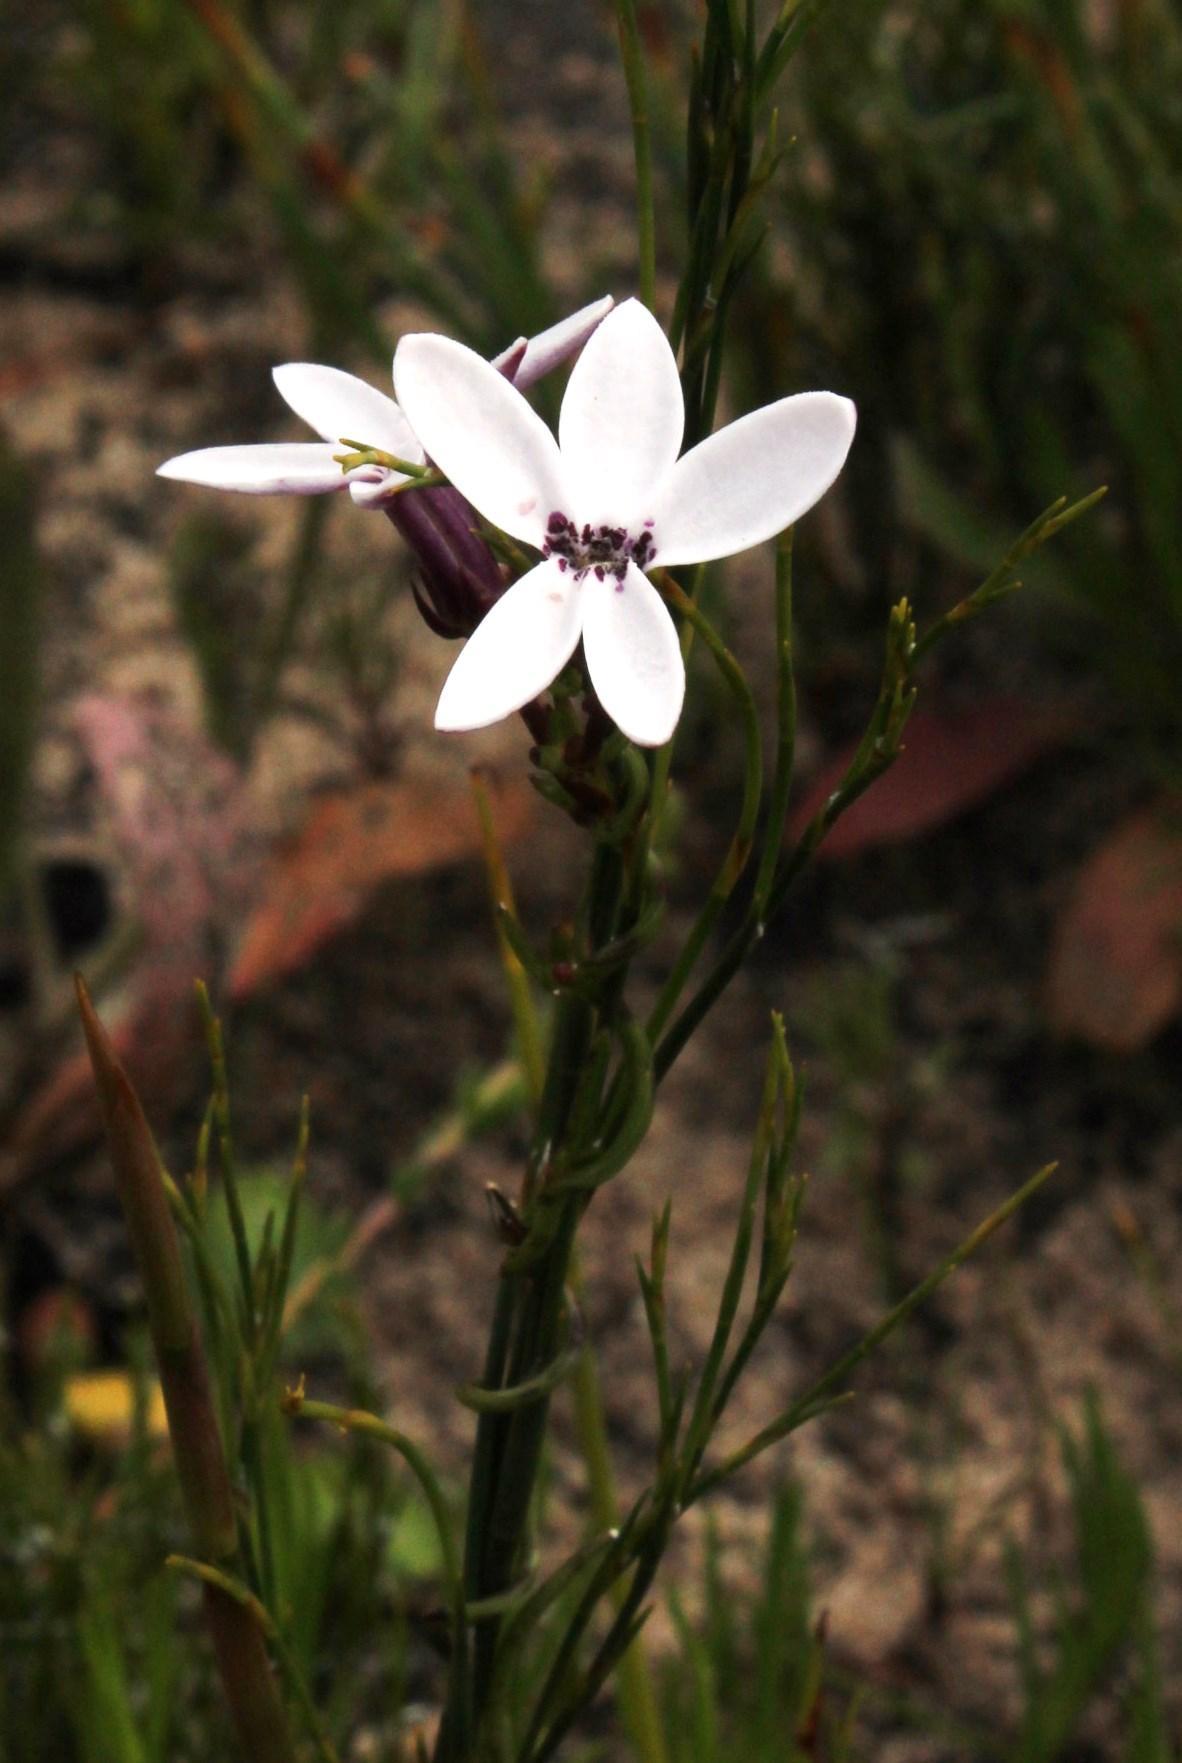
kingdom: Plantae
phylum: Tracheophyta
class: Magnoliopsida
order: Asterales
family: Campanulaceae
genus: Cyphia
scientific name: Cyphia volubilis
